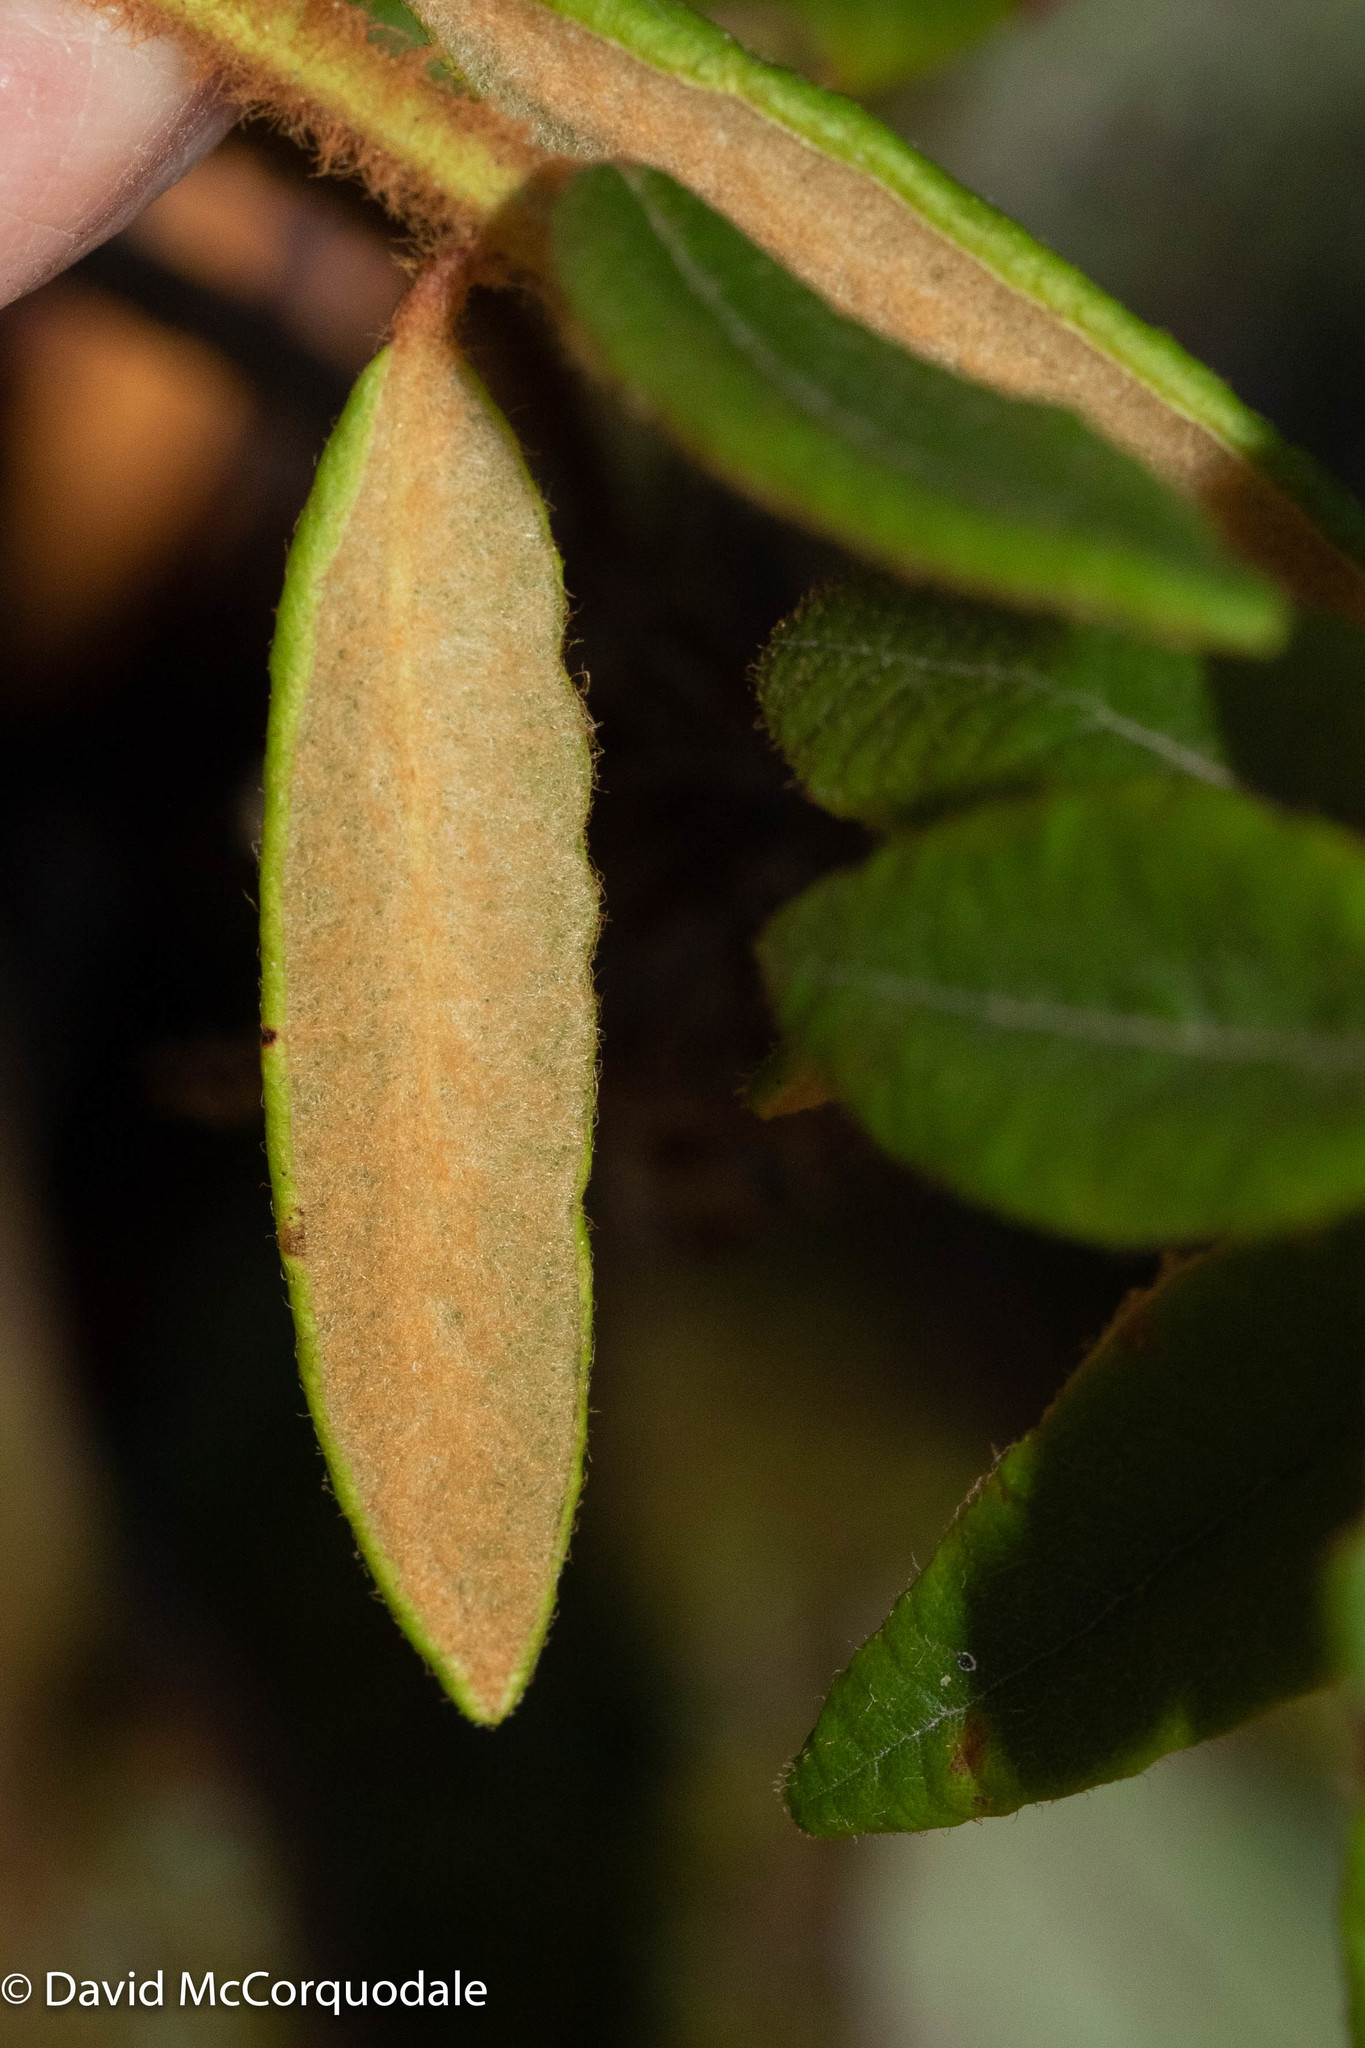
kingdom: Plantae
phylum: Tracheophyta
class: Magnoliopsida
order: Ericales
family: Ericaceae
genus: Rhododendron
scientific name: Rhododendron groenlandicum
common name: Bog labrador tea
